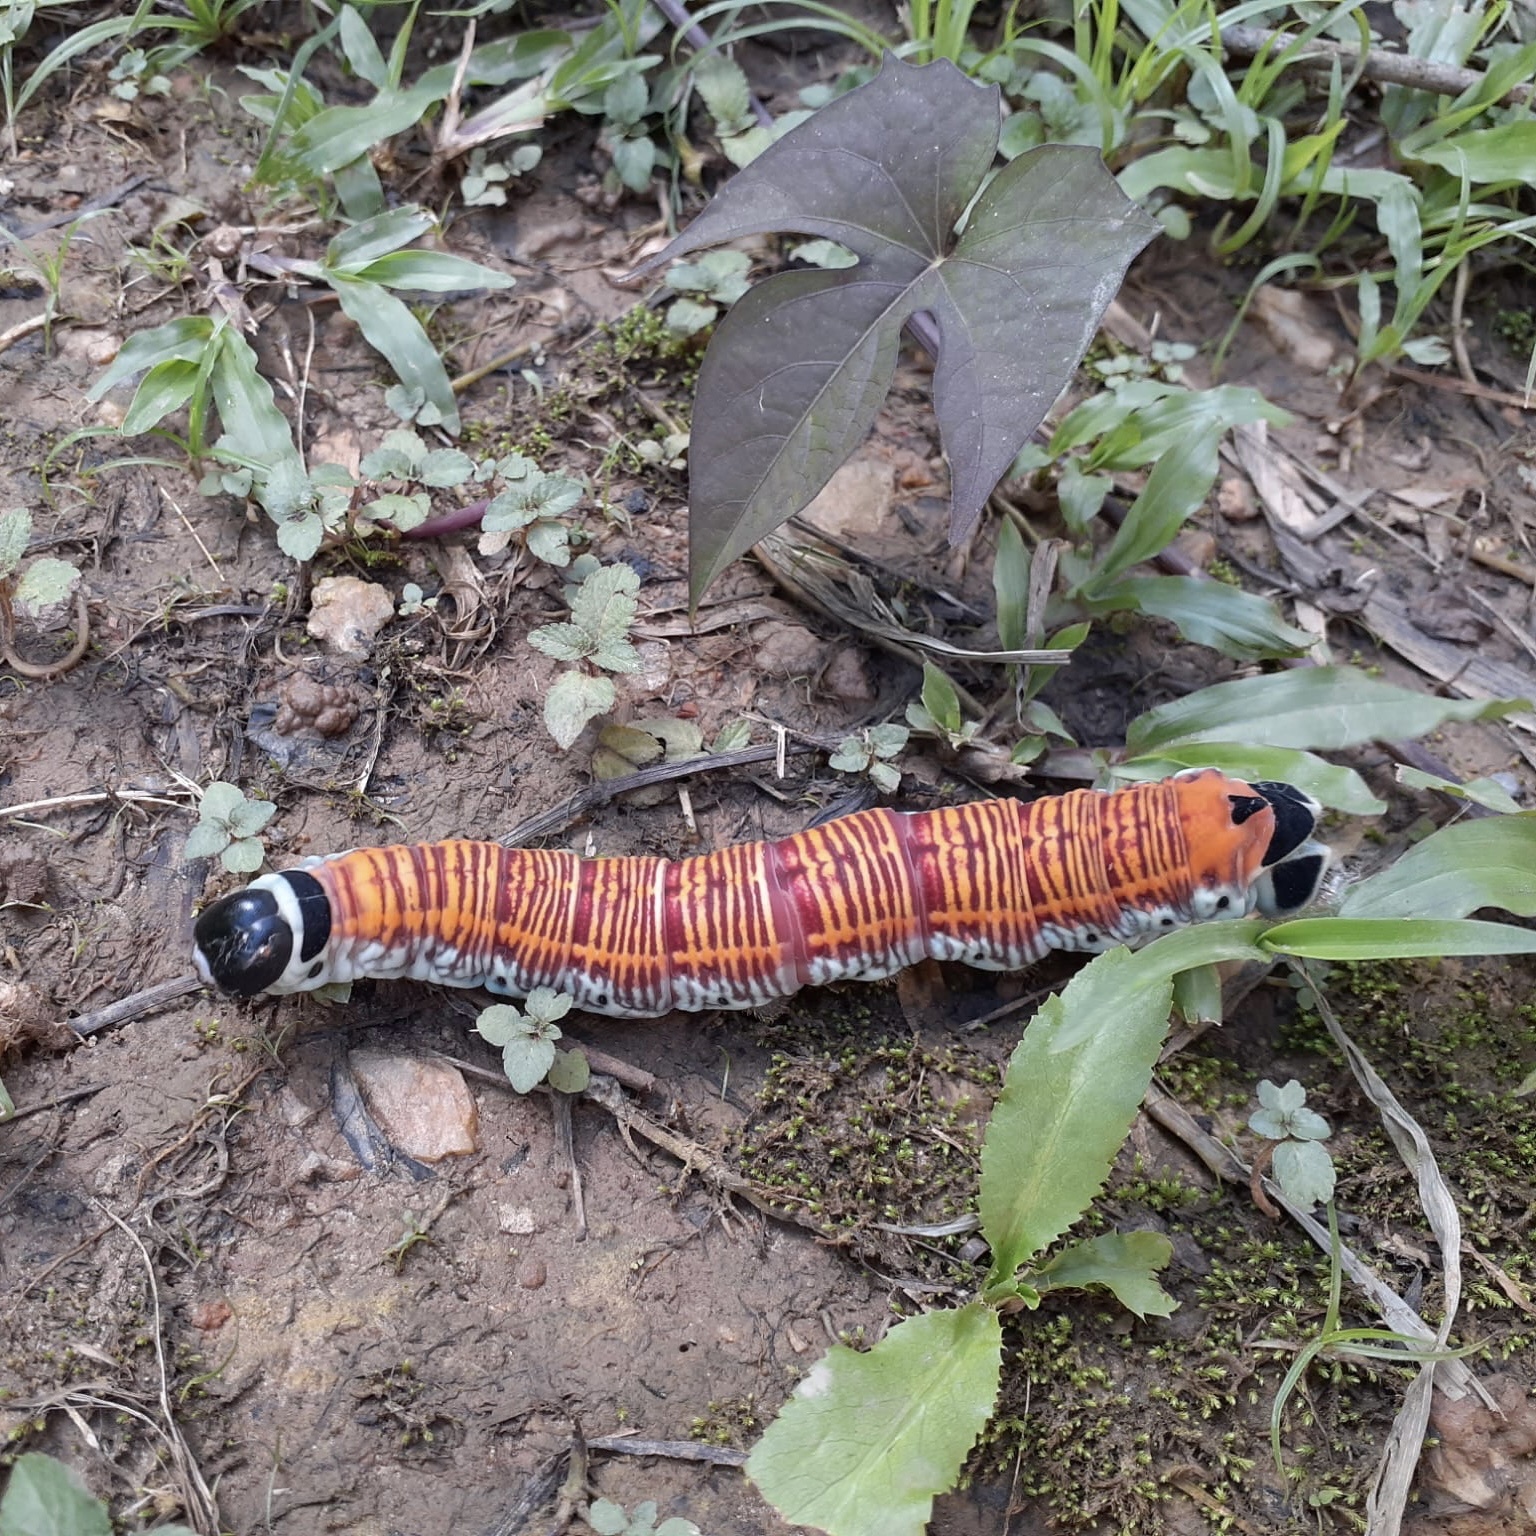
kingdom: Animalia
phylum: Arthropoda
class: Insecta
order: Lepidoptera
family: Sphingidae
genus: Pachylia
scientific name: Pachylia ficus
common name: Fig sphinx
